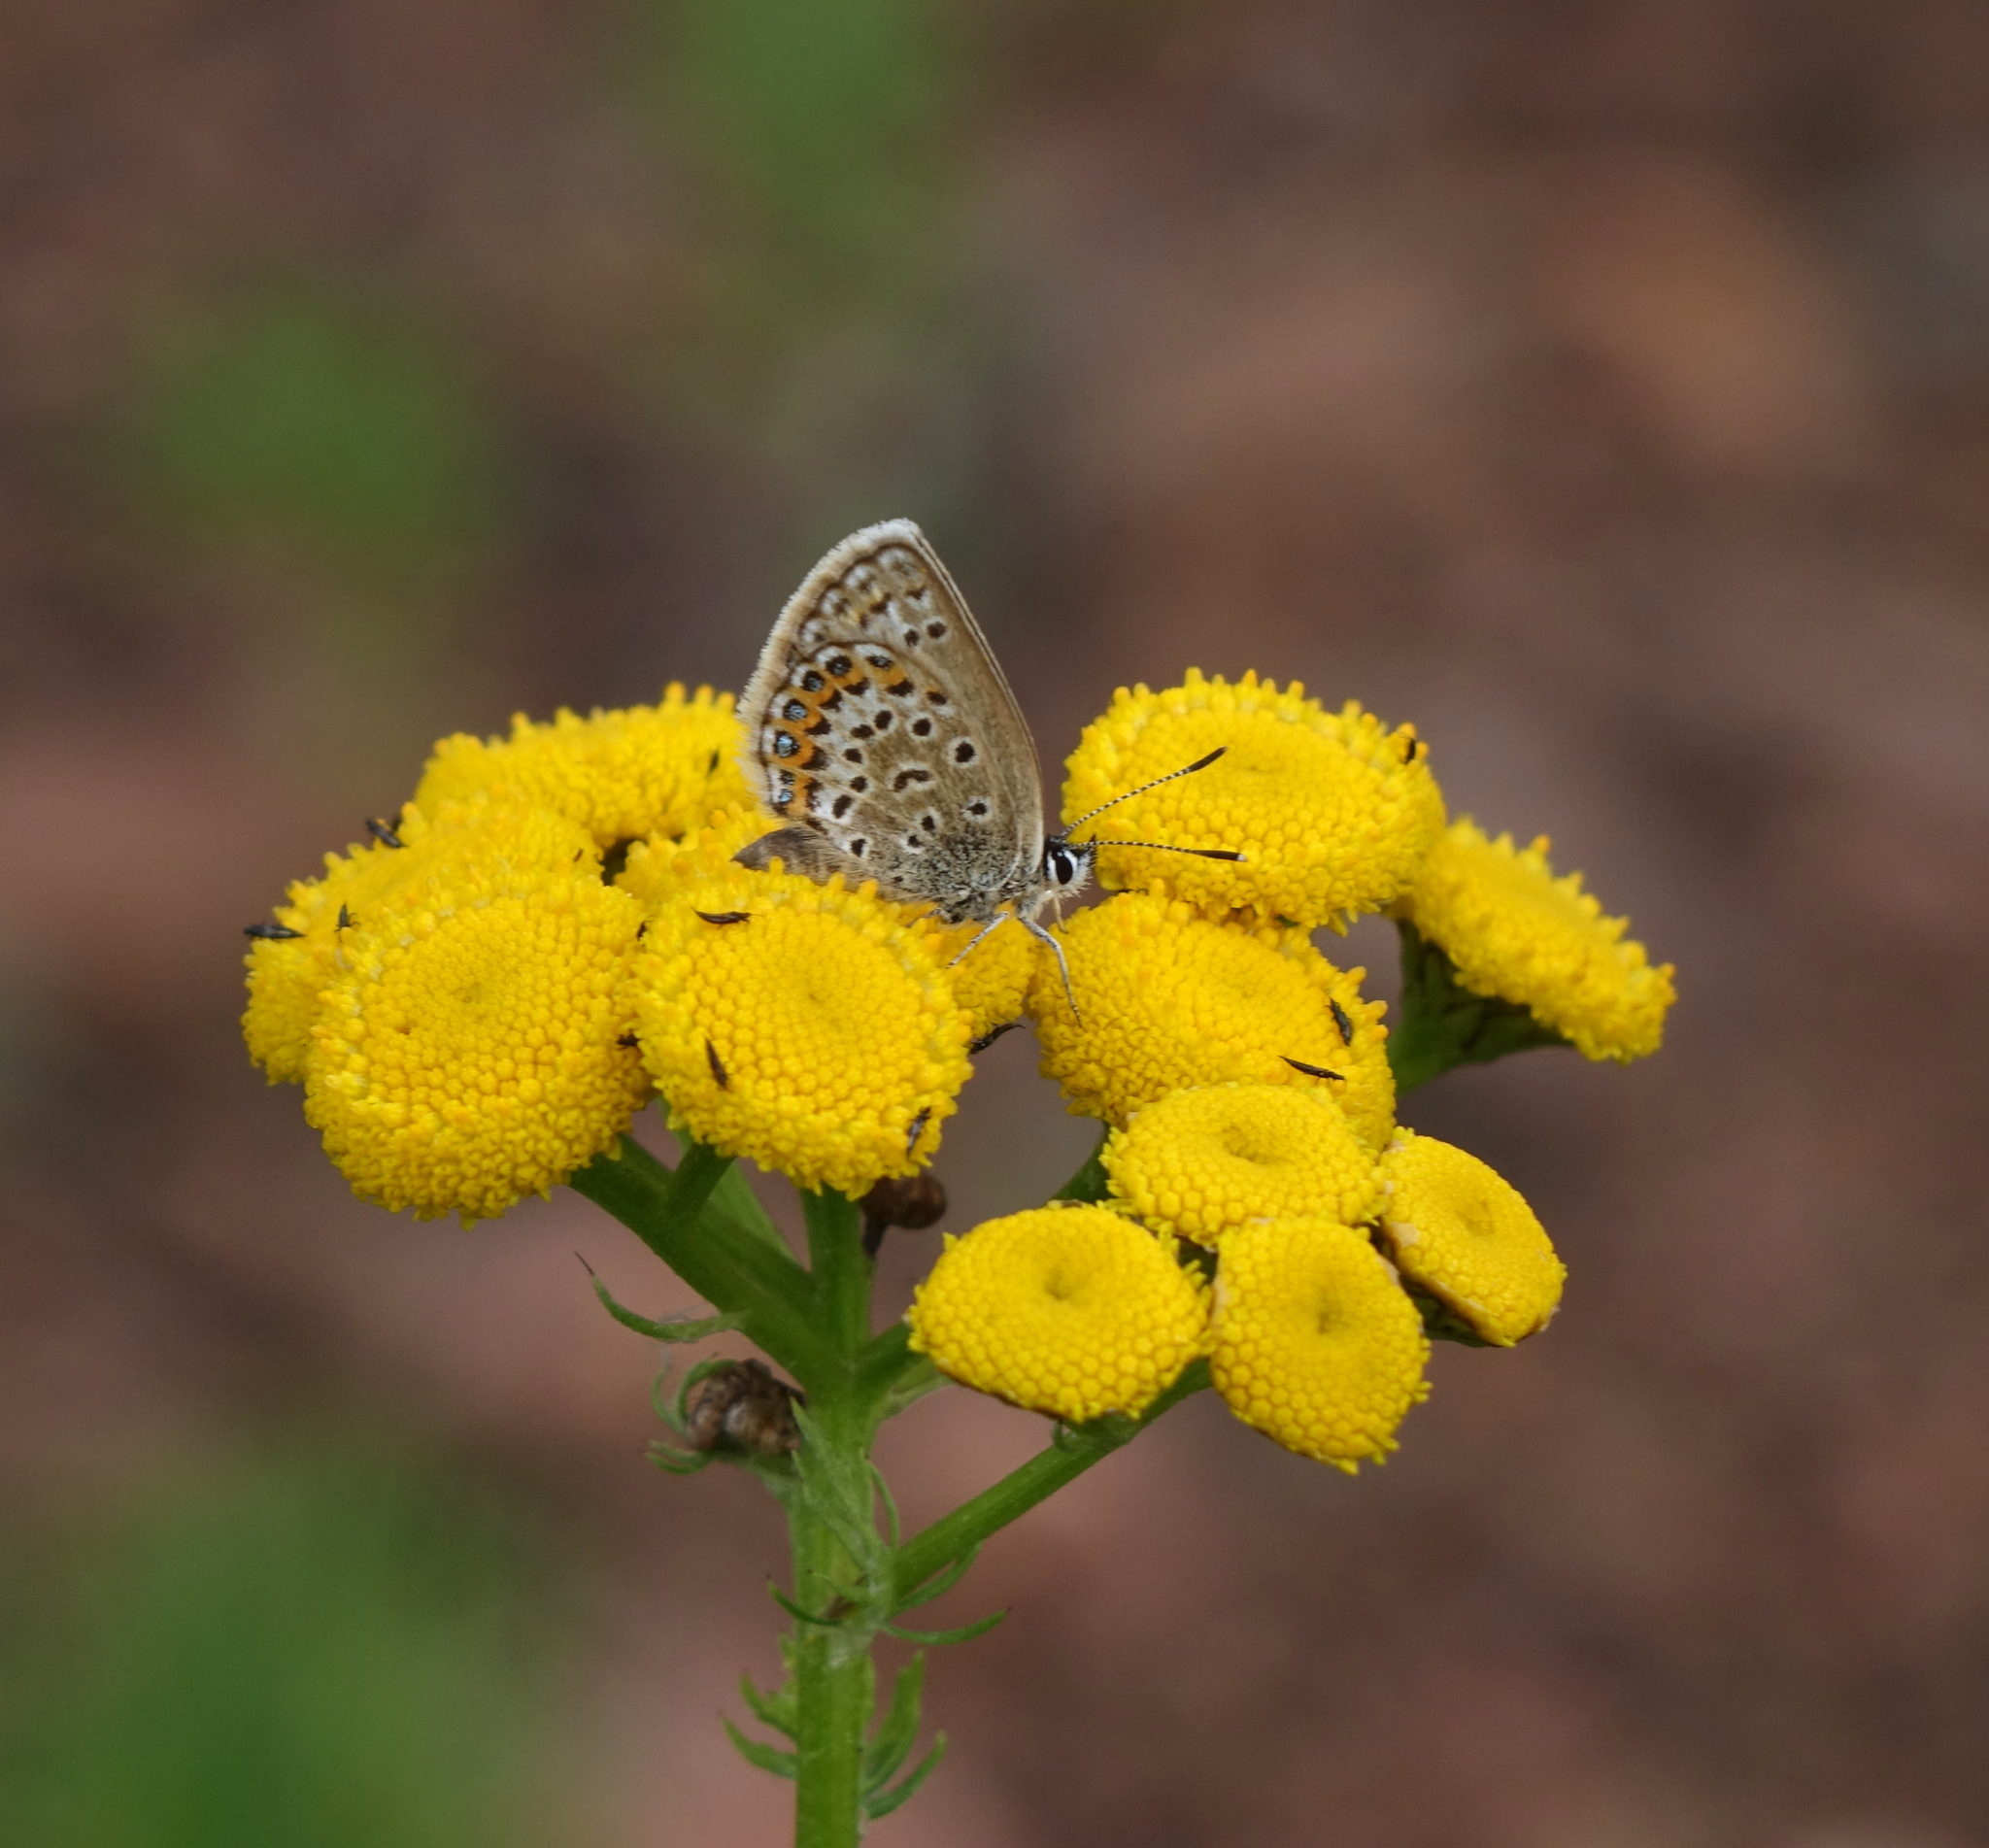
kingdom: Plantae
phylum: Tracheophyta
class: Magnoliopsida
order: Asterales
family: Asteraceae
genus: Tanacetum
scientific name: Tanacetum vulgare
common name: Common tansy
